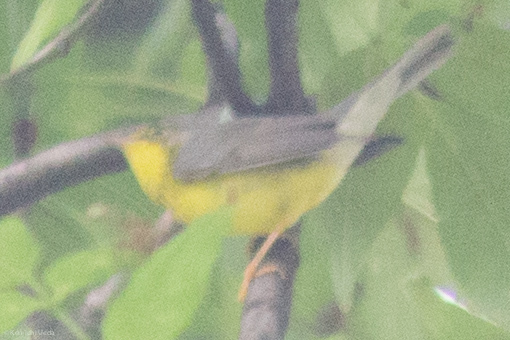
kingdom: Animalia
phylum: Chordata
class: Aves
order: Passeriformes
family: Parulidae
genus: Cardellina
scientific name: Cardellina canadensis
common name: Canada warbler
